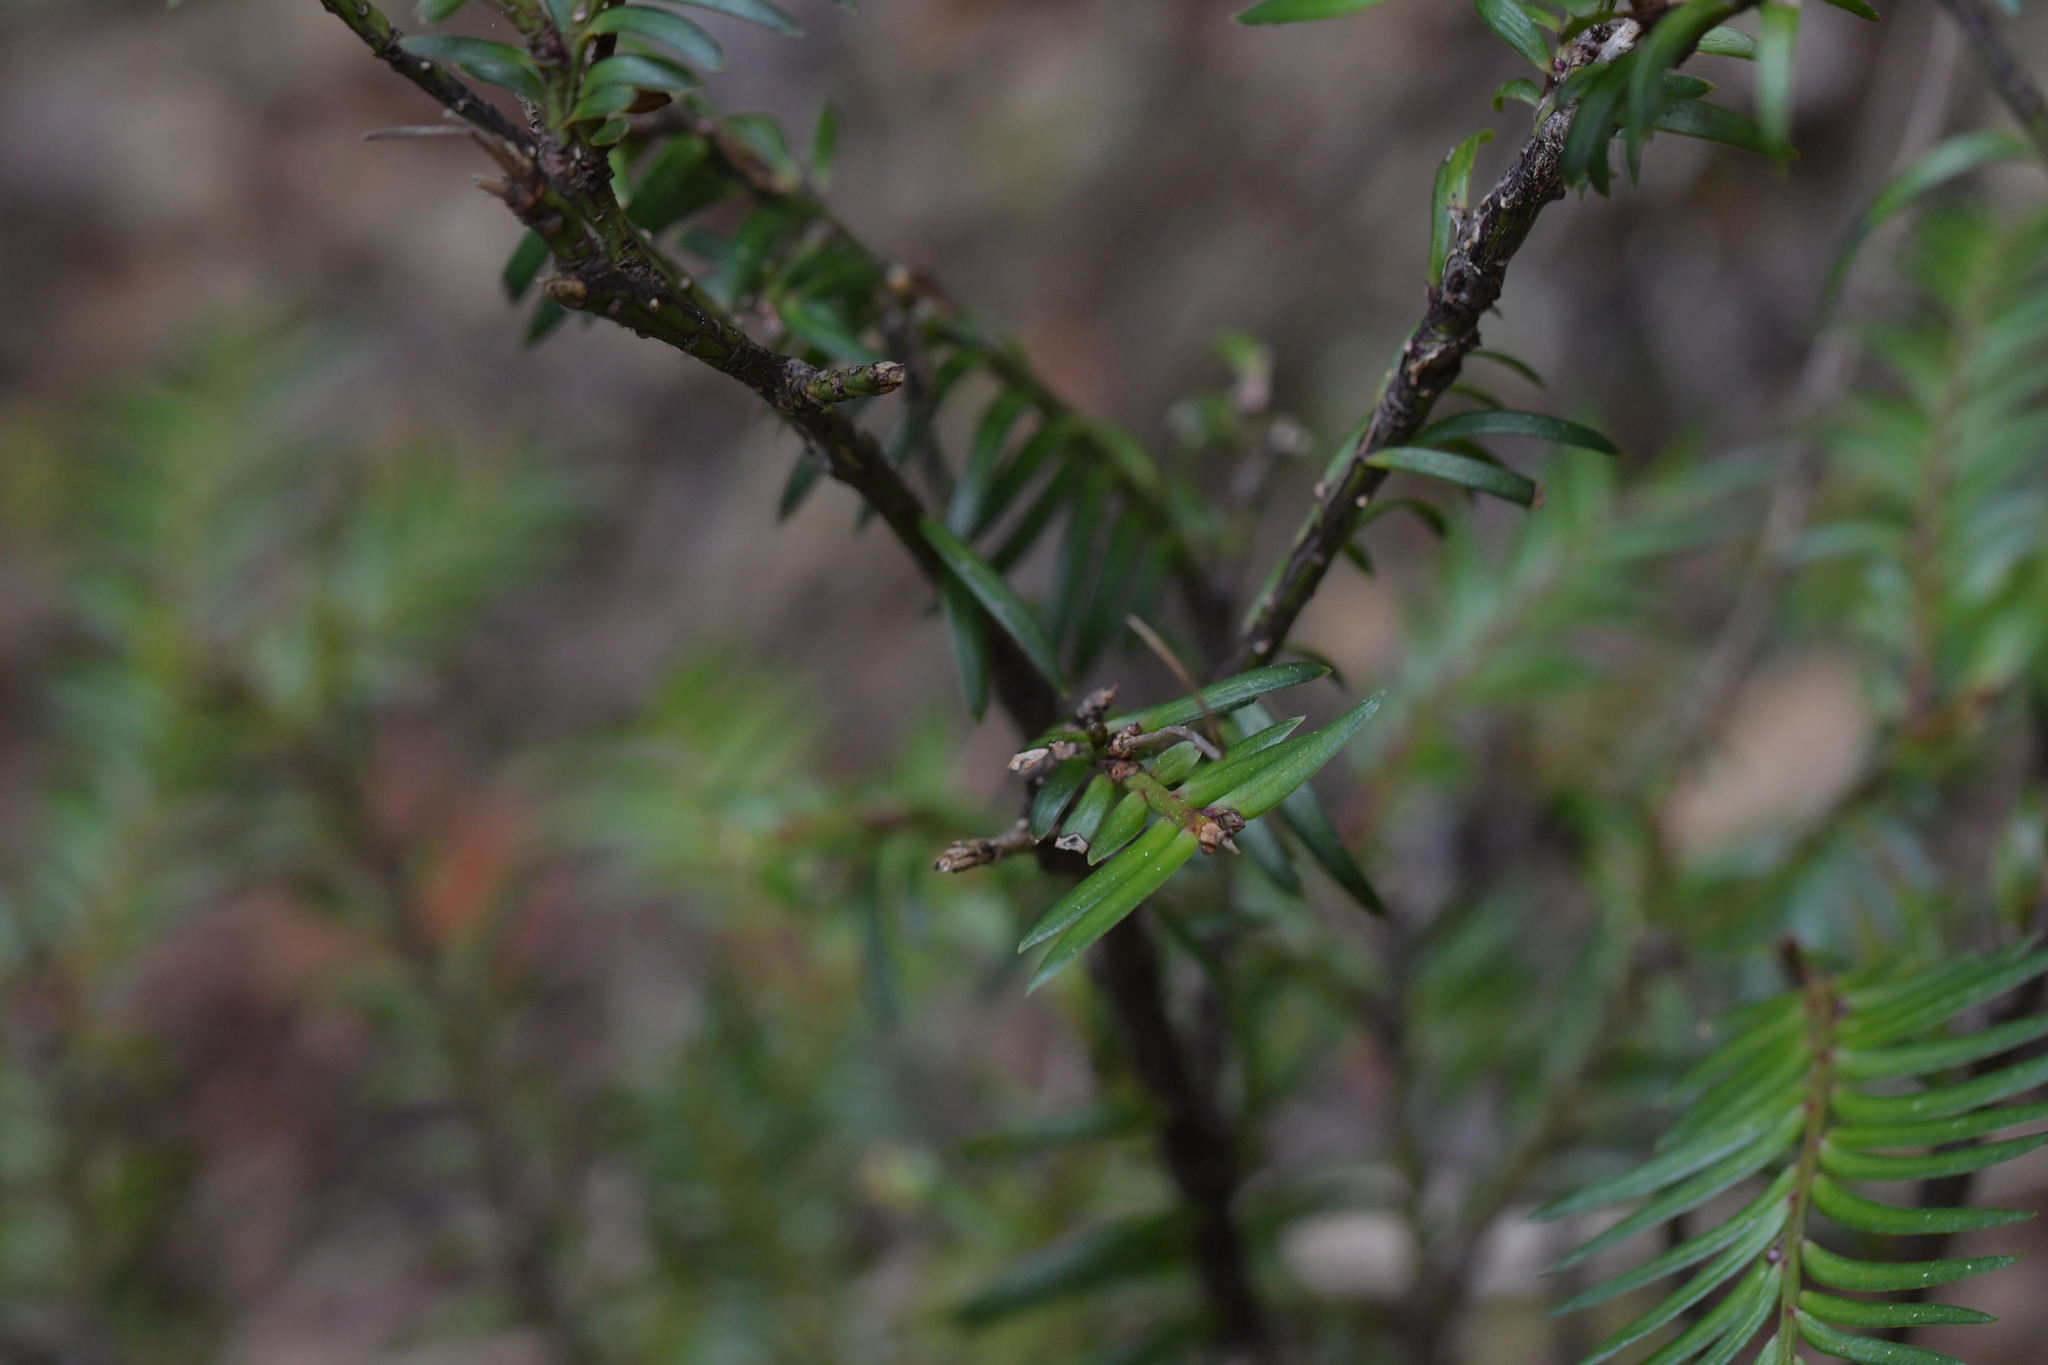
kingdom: Plantae
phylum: Tracheophyta
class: Pinopsida
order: Pinales
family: Podocarpaceae
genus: Prumnopitys
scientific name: Prumnopitys ferruginea
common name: Brown pine
